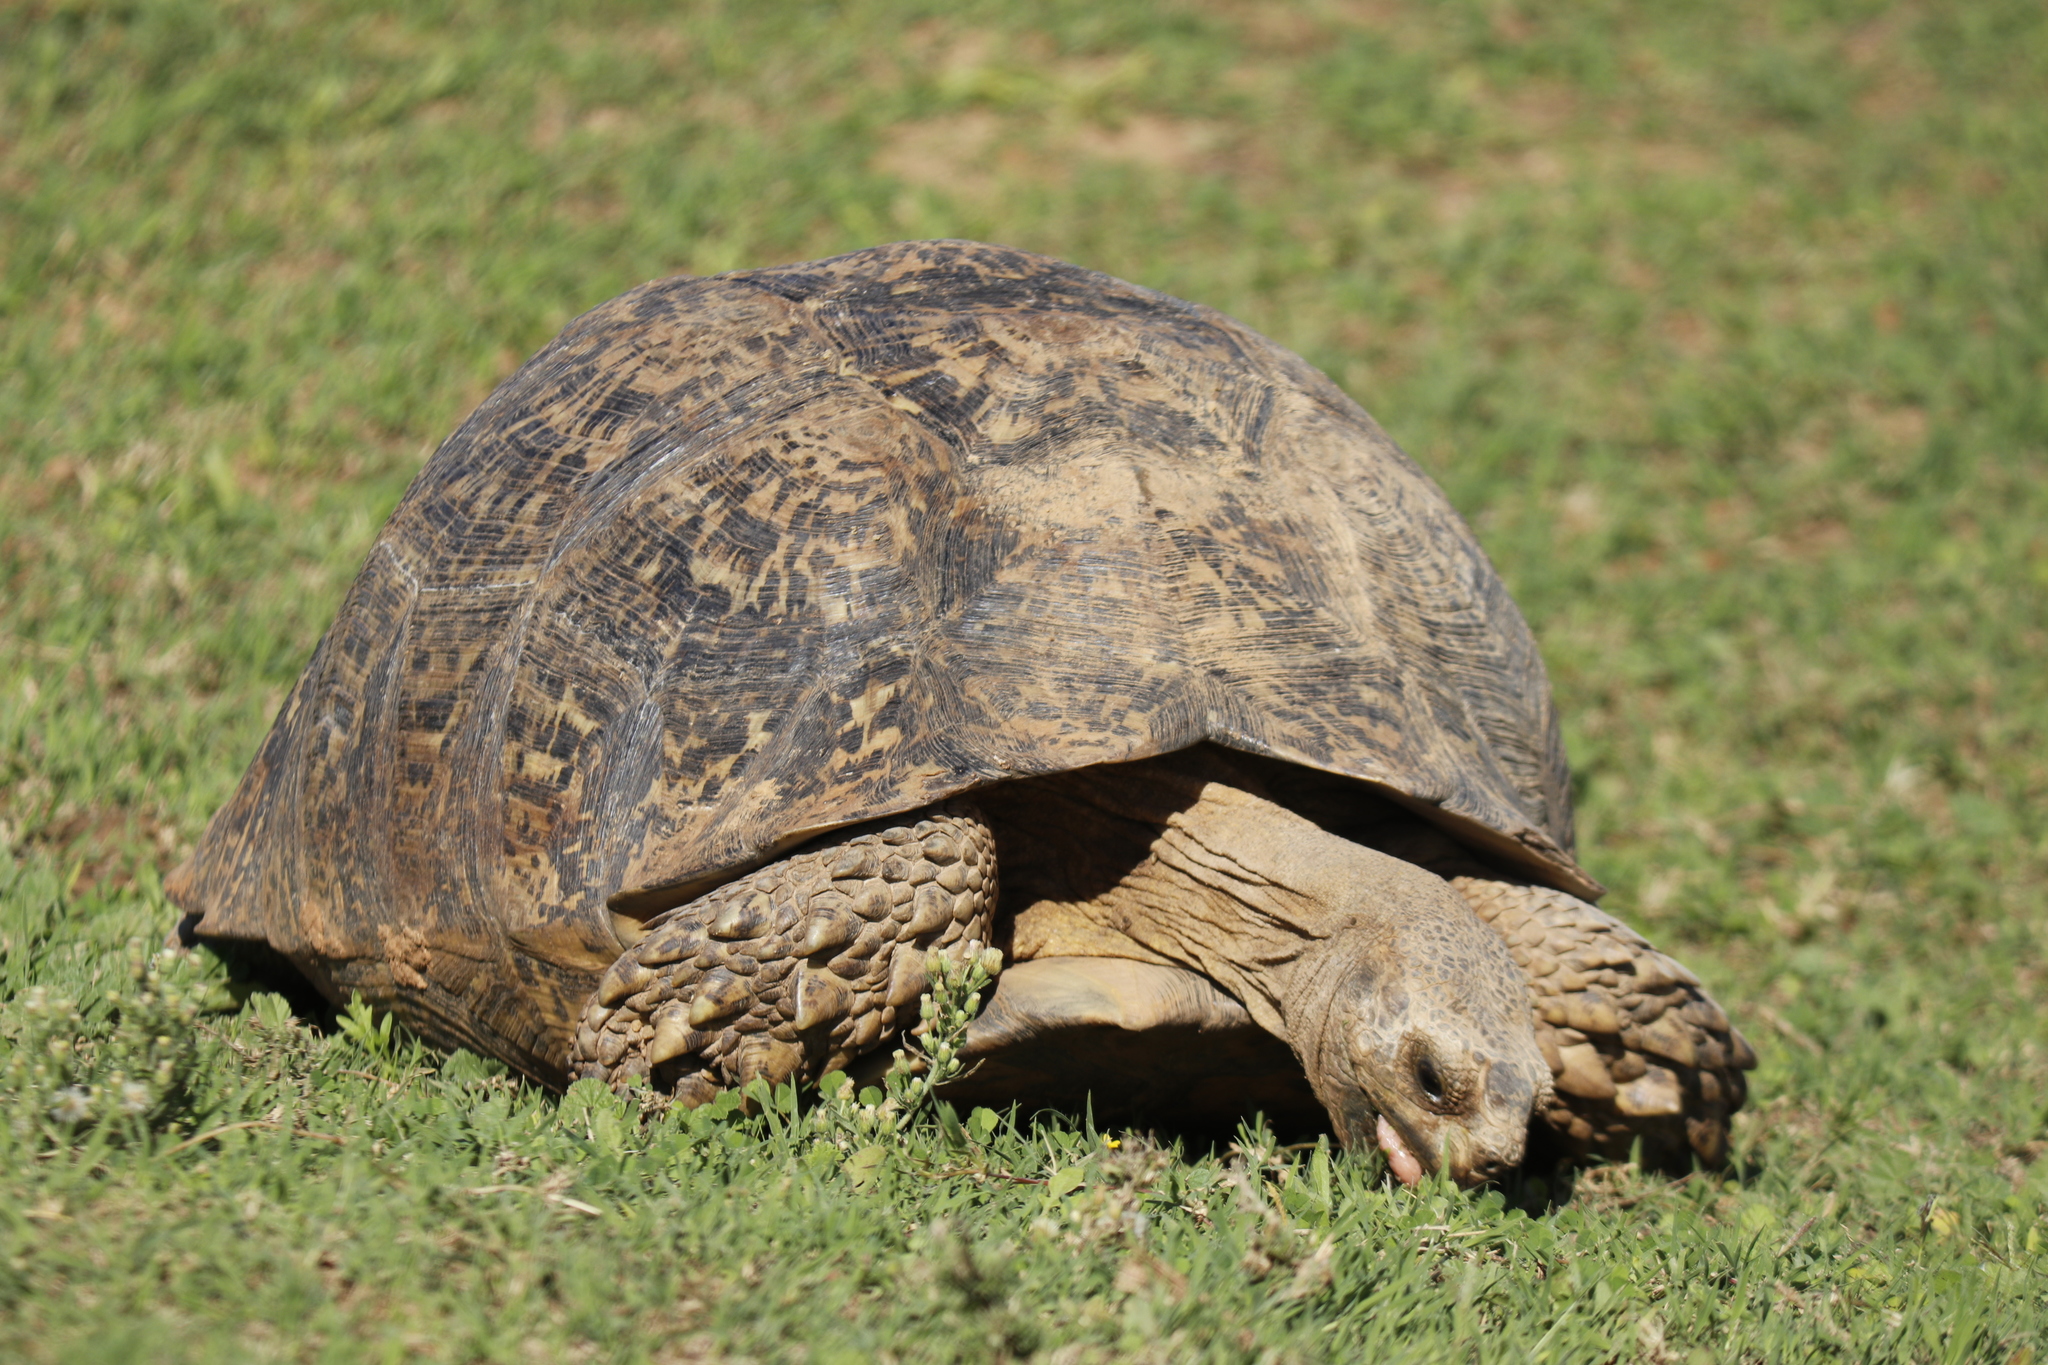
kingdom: Animalia
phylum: Chordata
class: Testudines
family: Testudinidae
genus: Stigmochelys
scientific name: Stigmochelys pardalis
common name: Leopard tortoise
